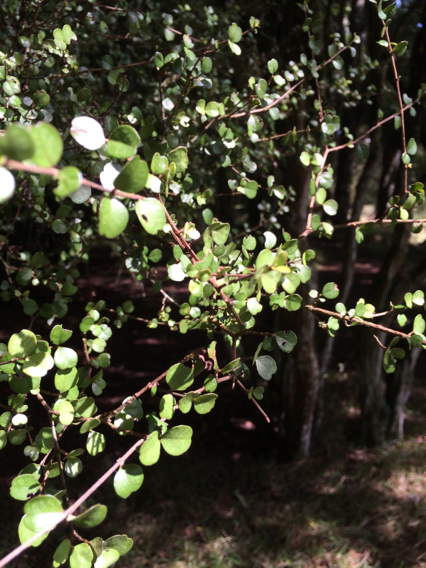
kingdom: Plantae
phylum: Tracheophyta
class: Magnoliopsida
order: Myrtales
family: Myrtaceae
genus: Lophomyrtus
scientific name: Lophomyrtus obcordata
